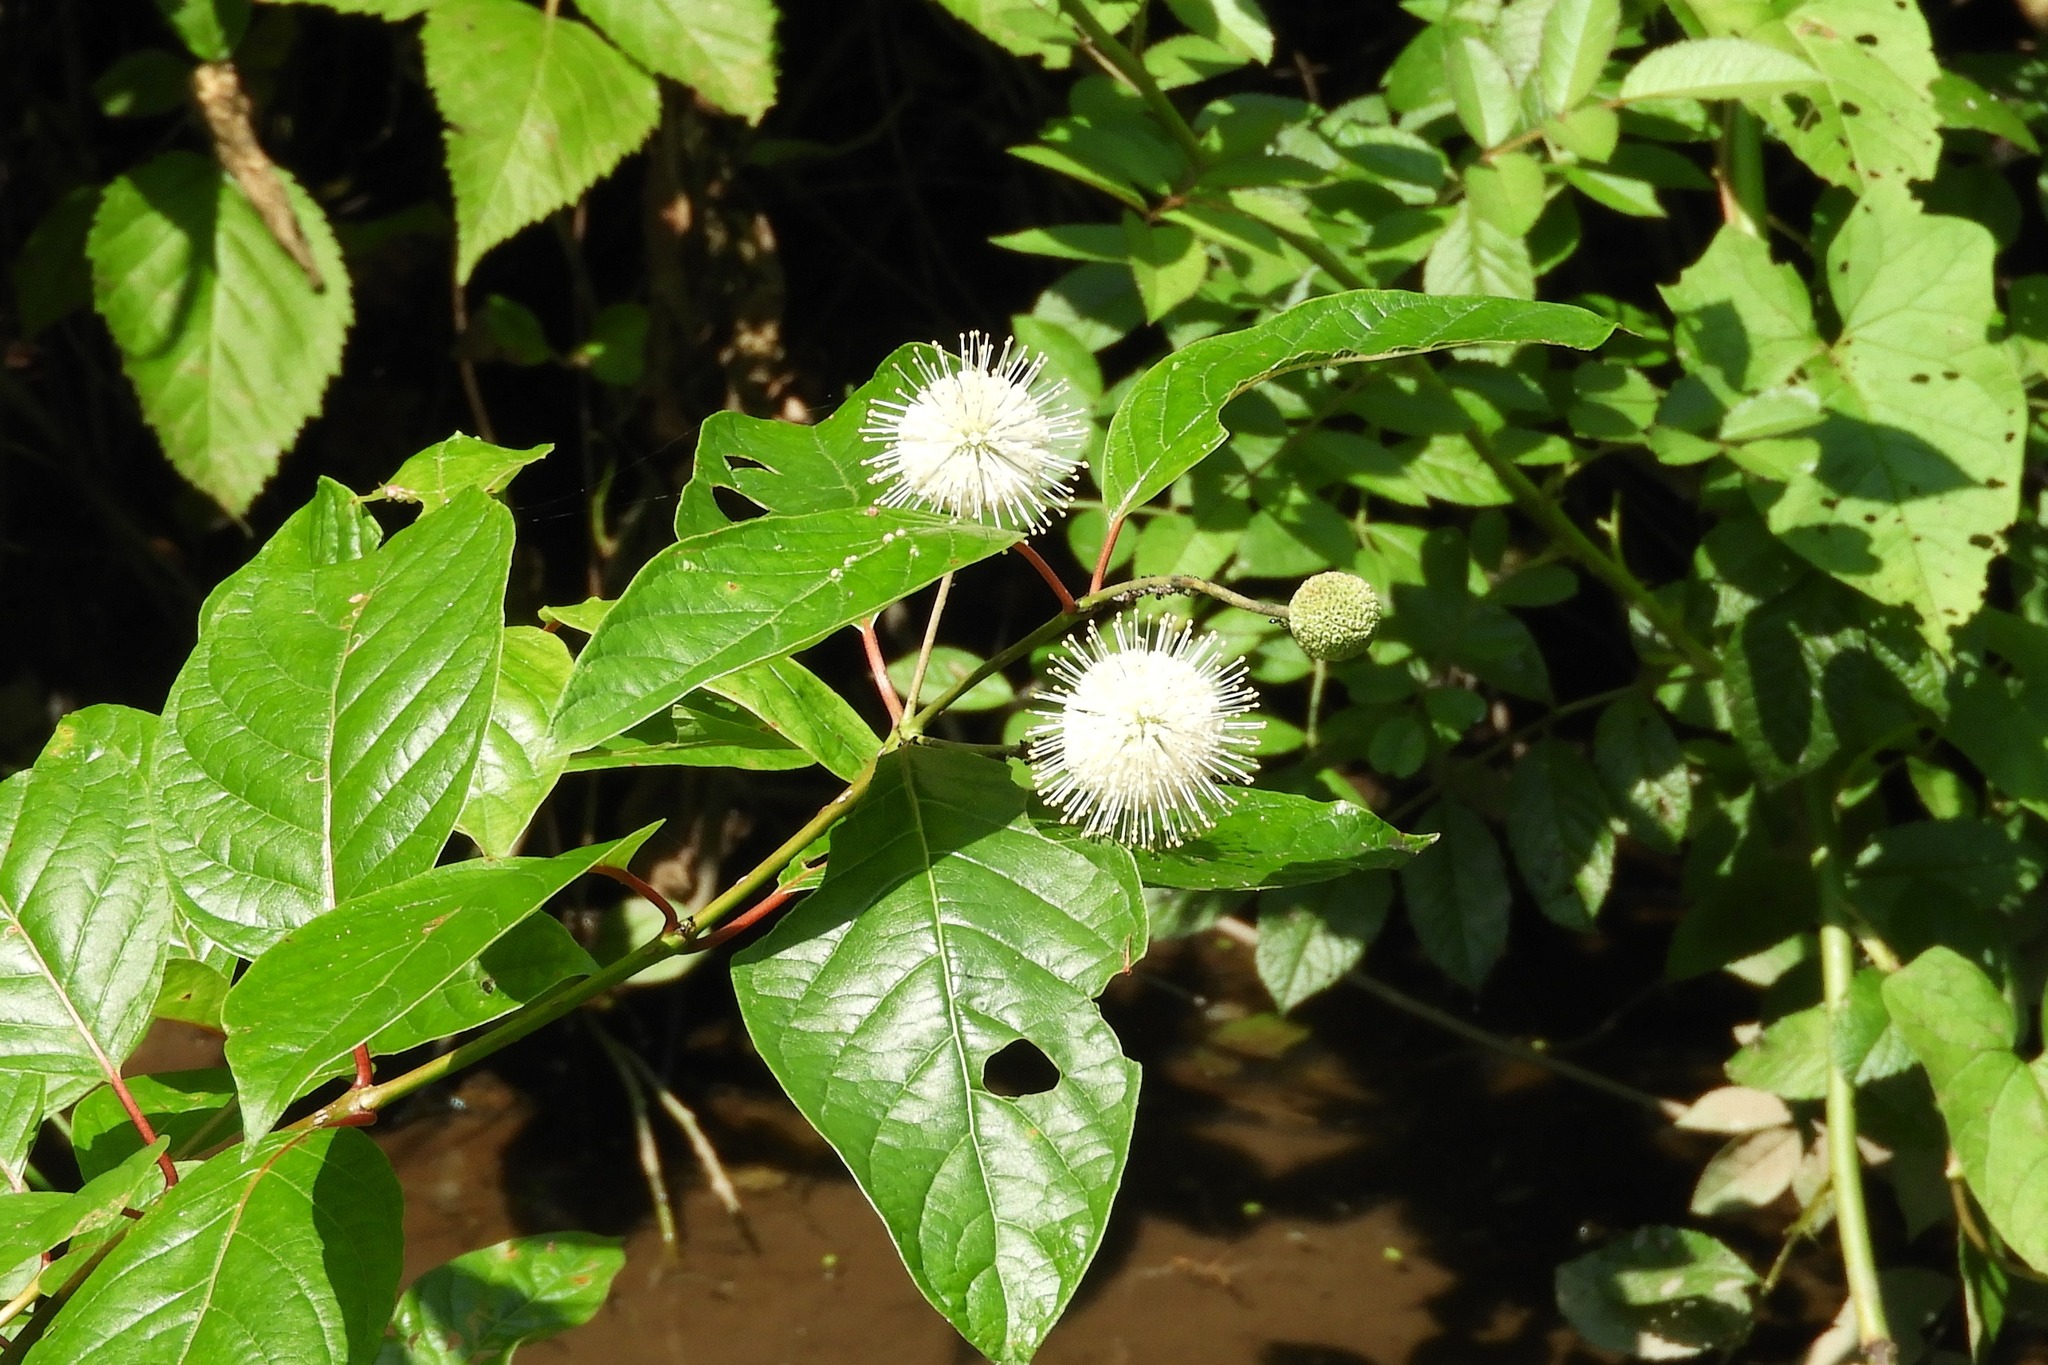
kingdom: Plantae
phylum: Tracheophyta
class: Magnoliopsida
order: Gentianales
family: Rubiaceae
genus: Cephalanthus
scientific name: Cephalanthus occidentalis
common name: Button-willow
